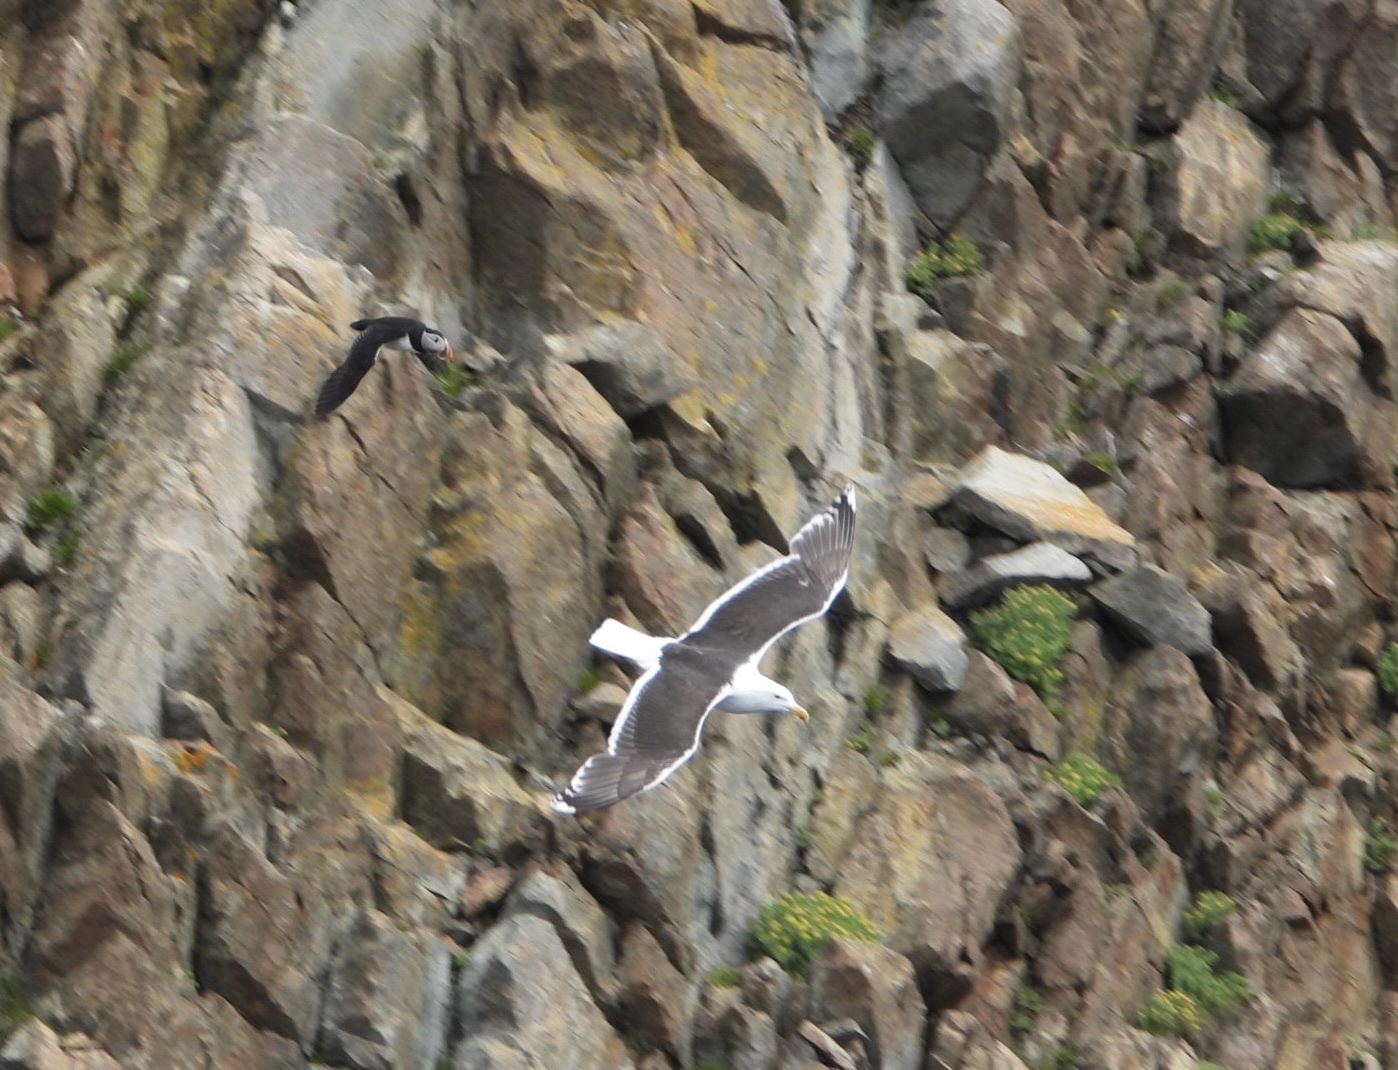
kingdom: Animalia
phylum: Chordata
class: Aves
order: Charadriiformes
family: Laridae
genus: Larus
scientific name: Larus marinus
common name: Great black-backed gull
